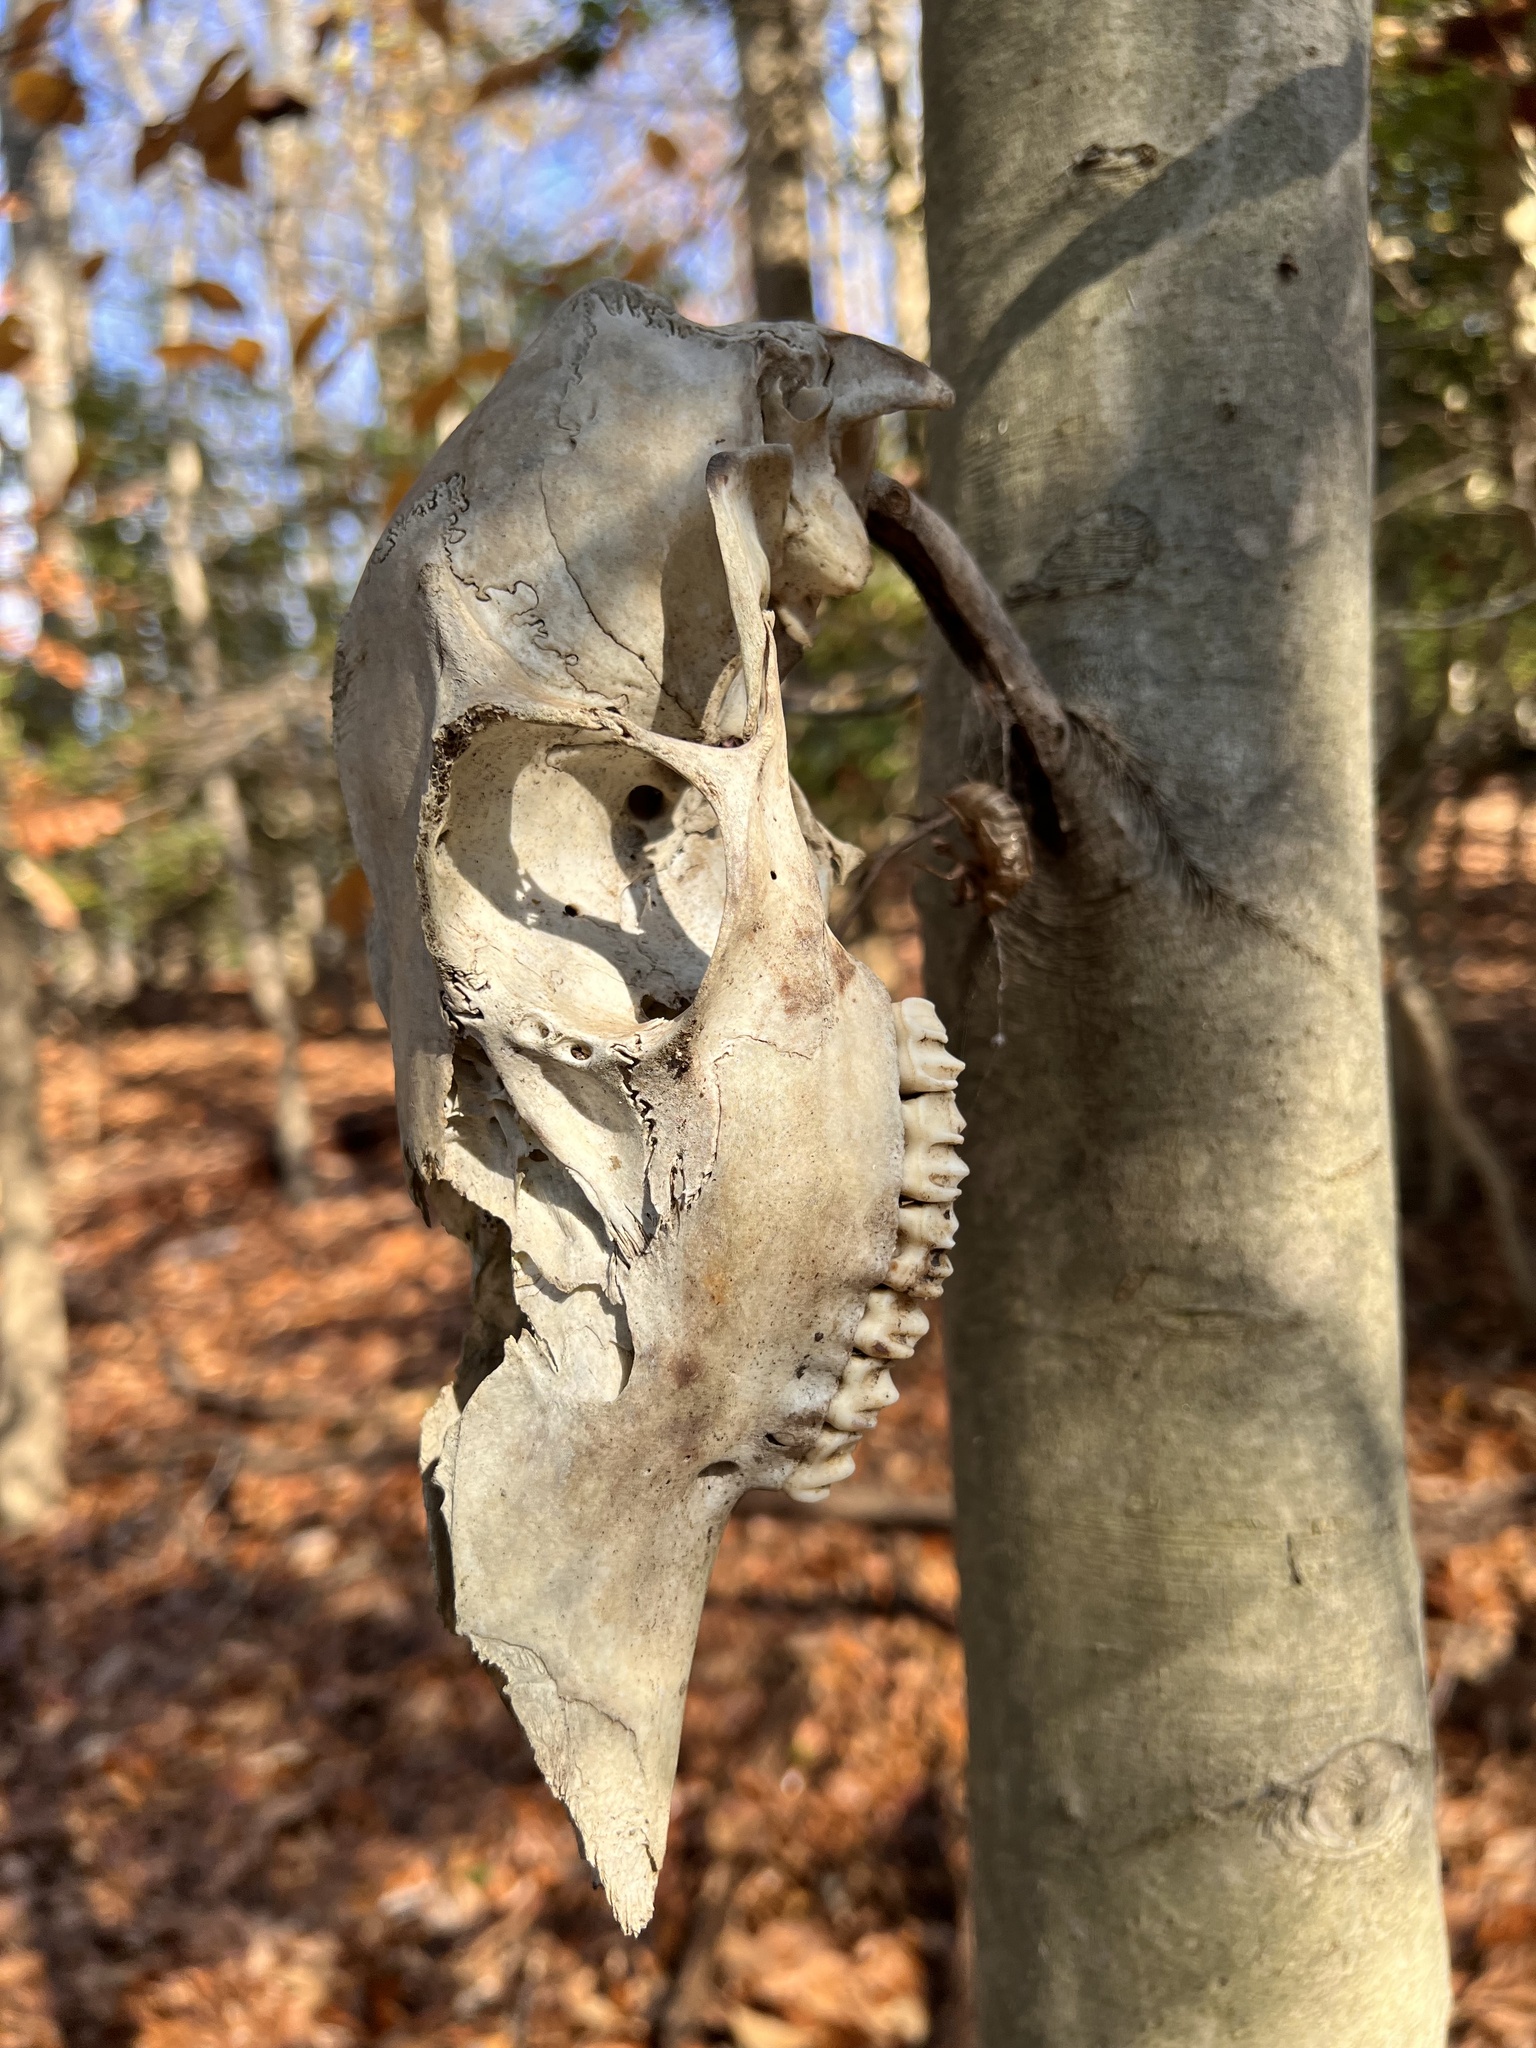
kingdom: Animalia
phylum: Chordata
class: Mammalia
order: Artiodactyla
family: Cervidae
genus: Odocoileus
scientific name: Odocoileus virginianus
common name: White-tailed deer
